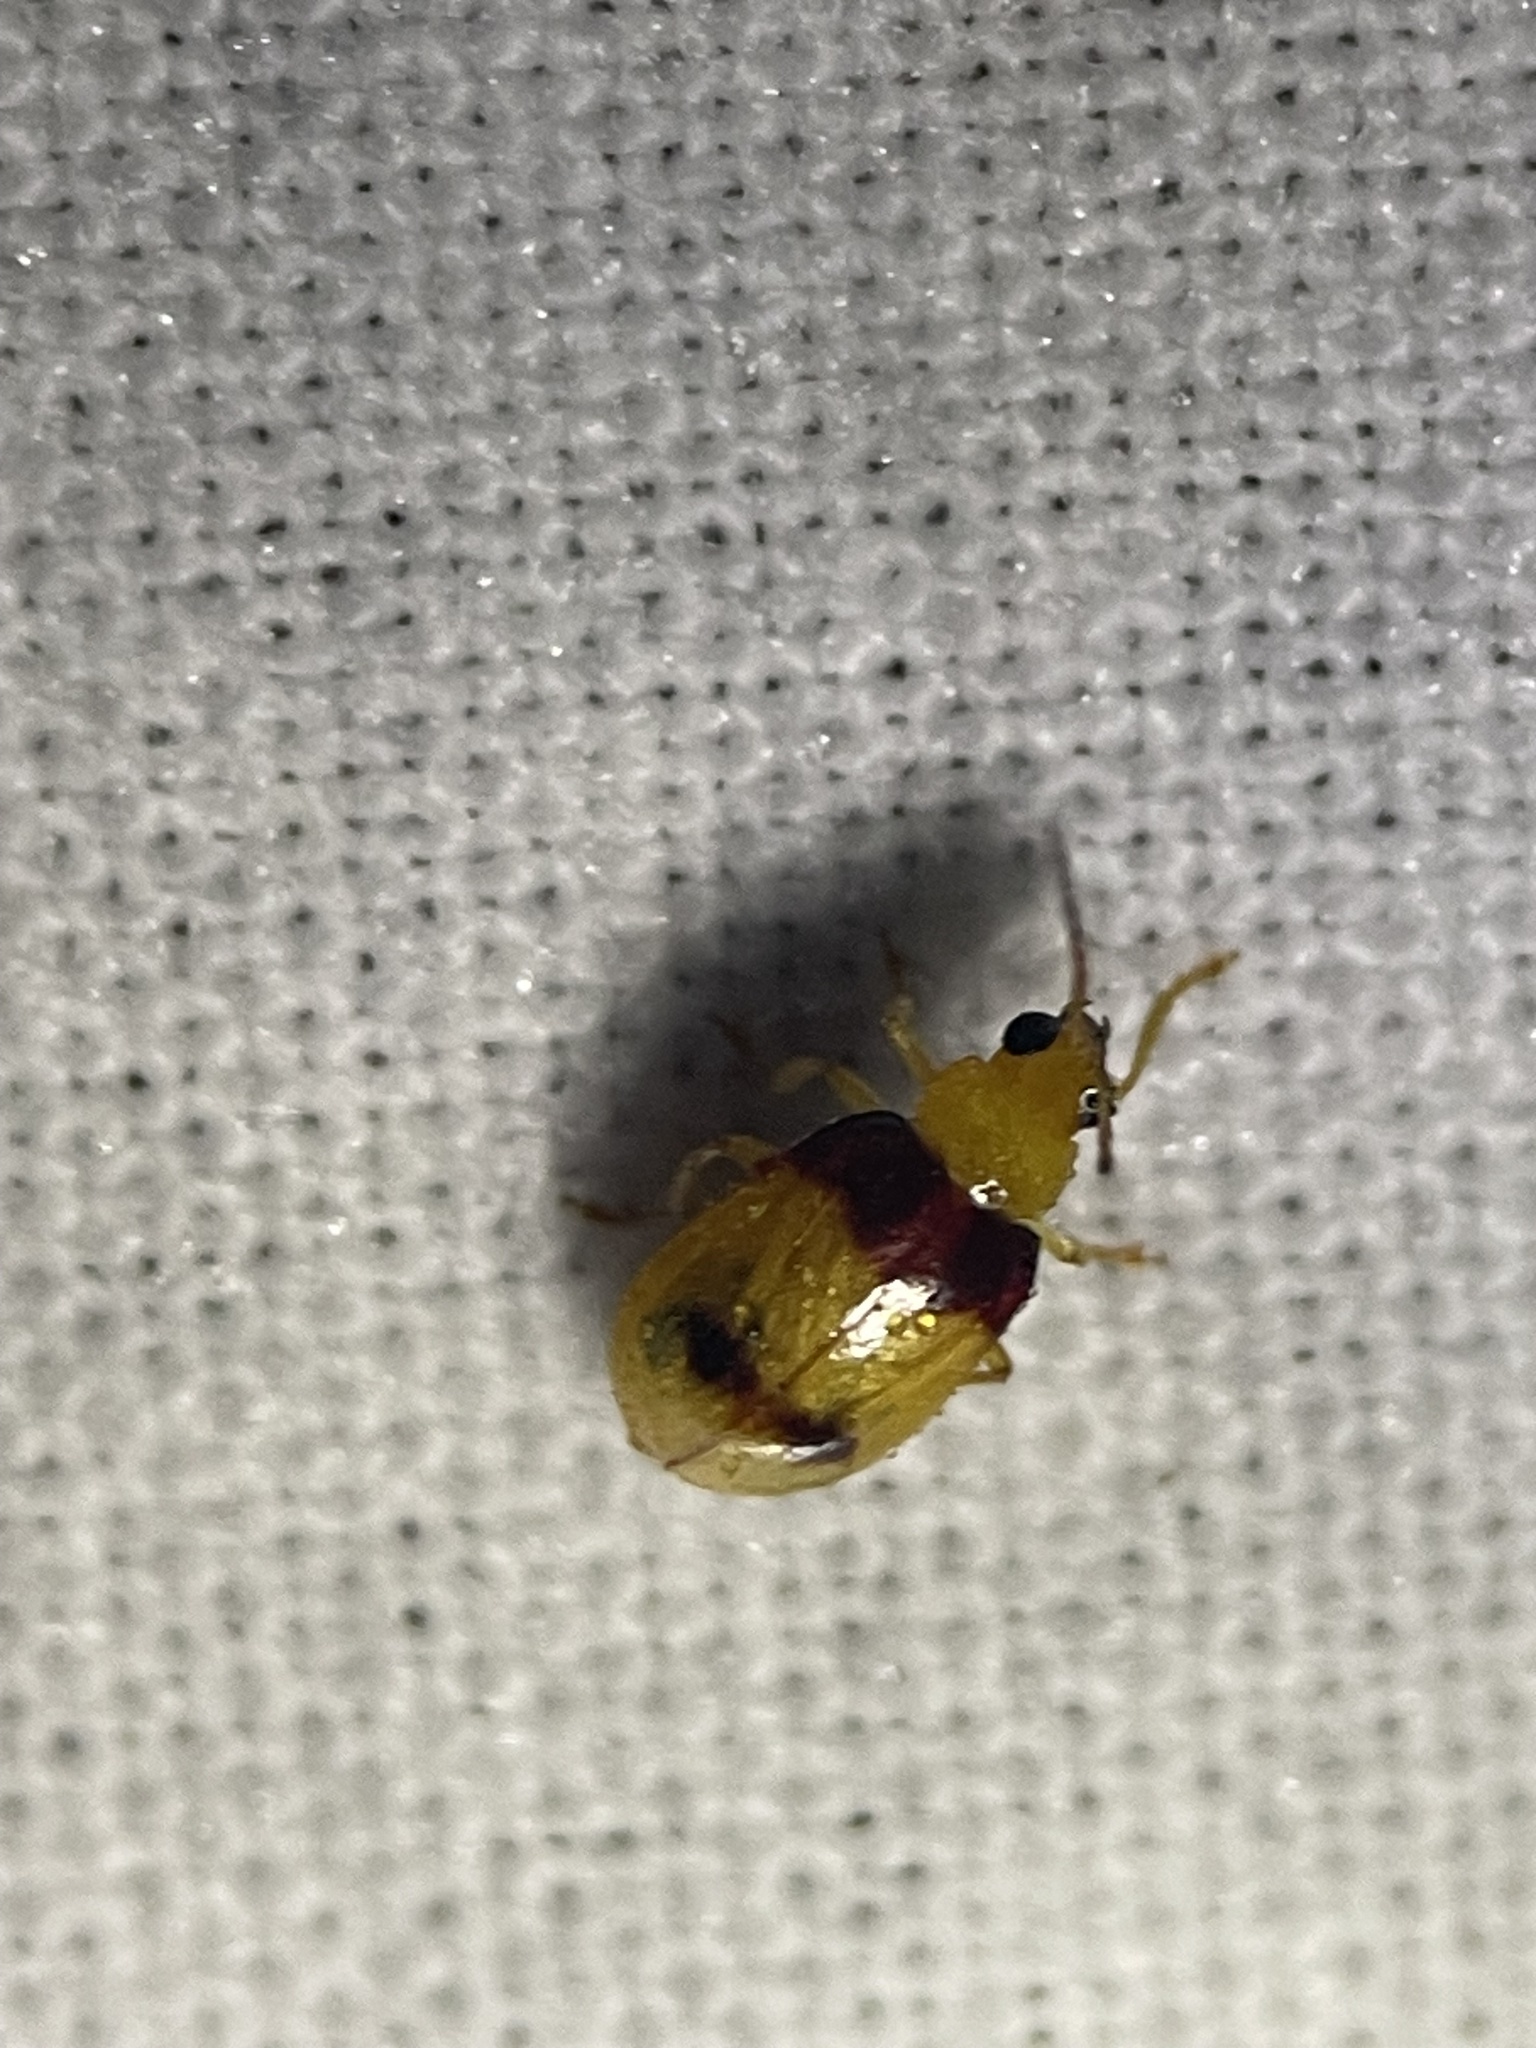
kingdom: Animalia
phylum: Arthropoda
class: Insecta
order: Coleoptera
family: Chrysomelidae
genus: Monolepta
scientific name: Monolepta
